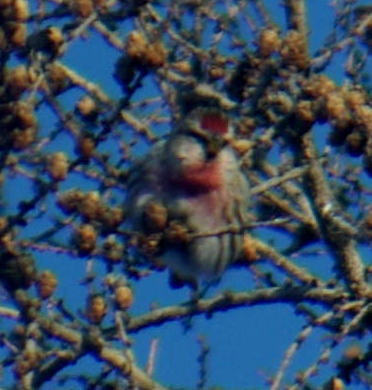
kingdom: Animalia
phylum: Chordata
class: Aves
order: Passeriformes
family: Fringillidae
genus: Acanthis
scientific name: Acanthis flammea
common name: Common redpoll
